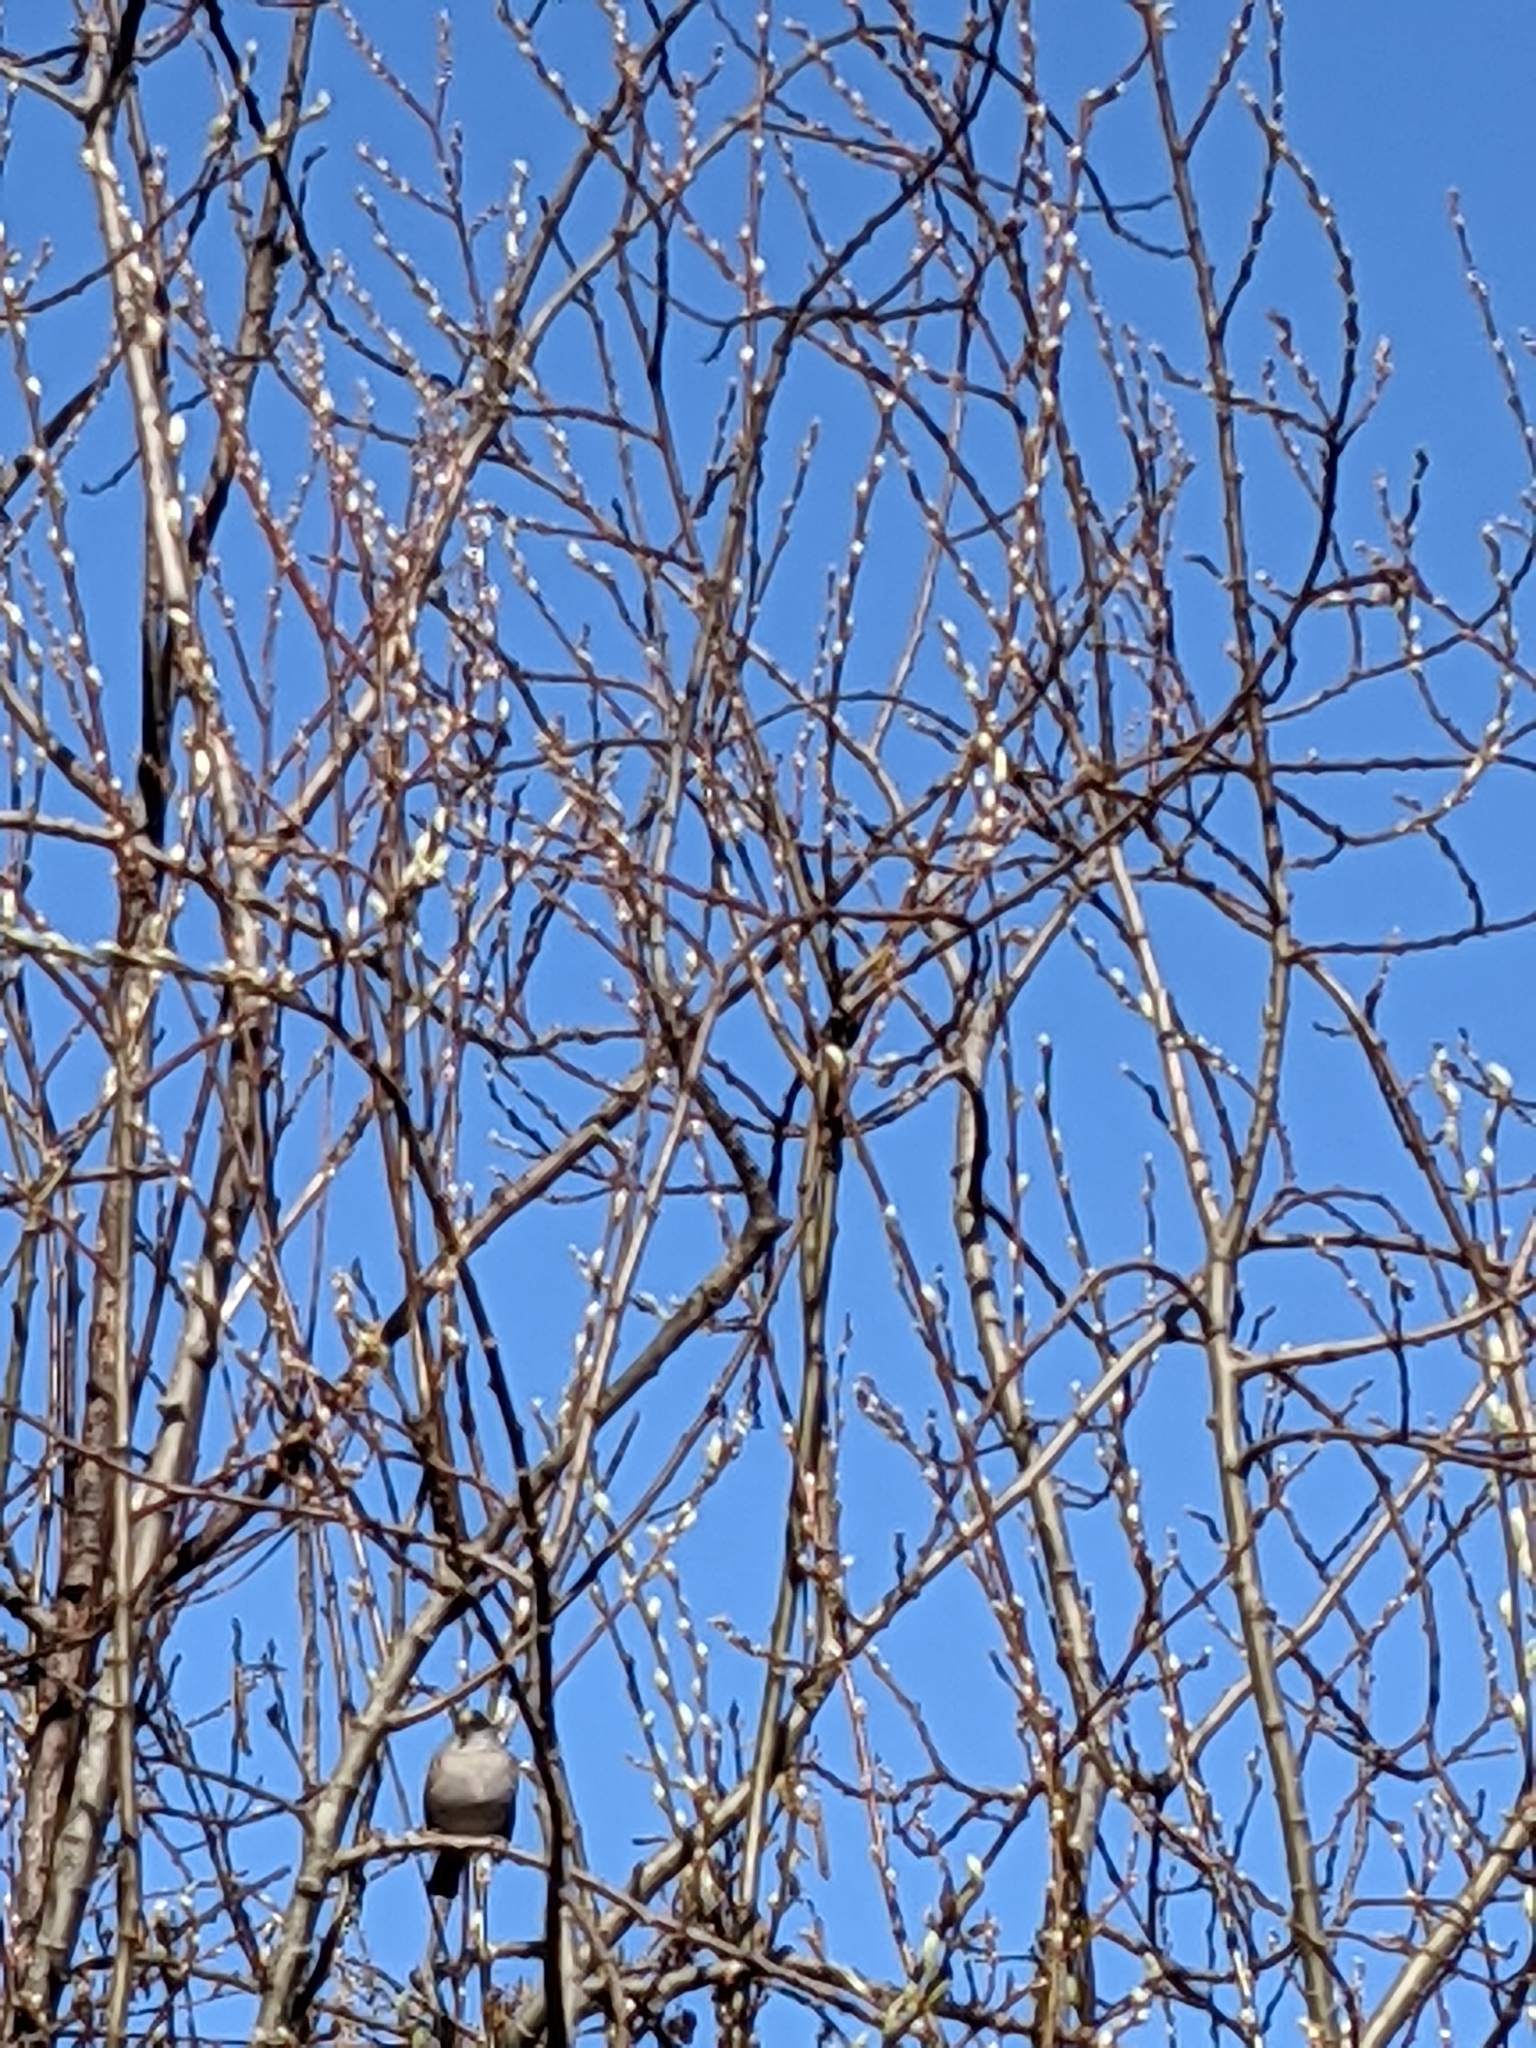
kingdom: Animalia
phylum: Chordata
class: Aves
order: Passeriformes
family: Passerellidae
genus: Zonotrichia
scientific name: Zonotrichia atricapilla
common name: Golden-crowned sparrow
